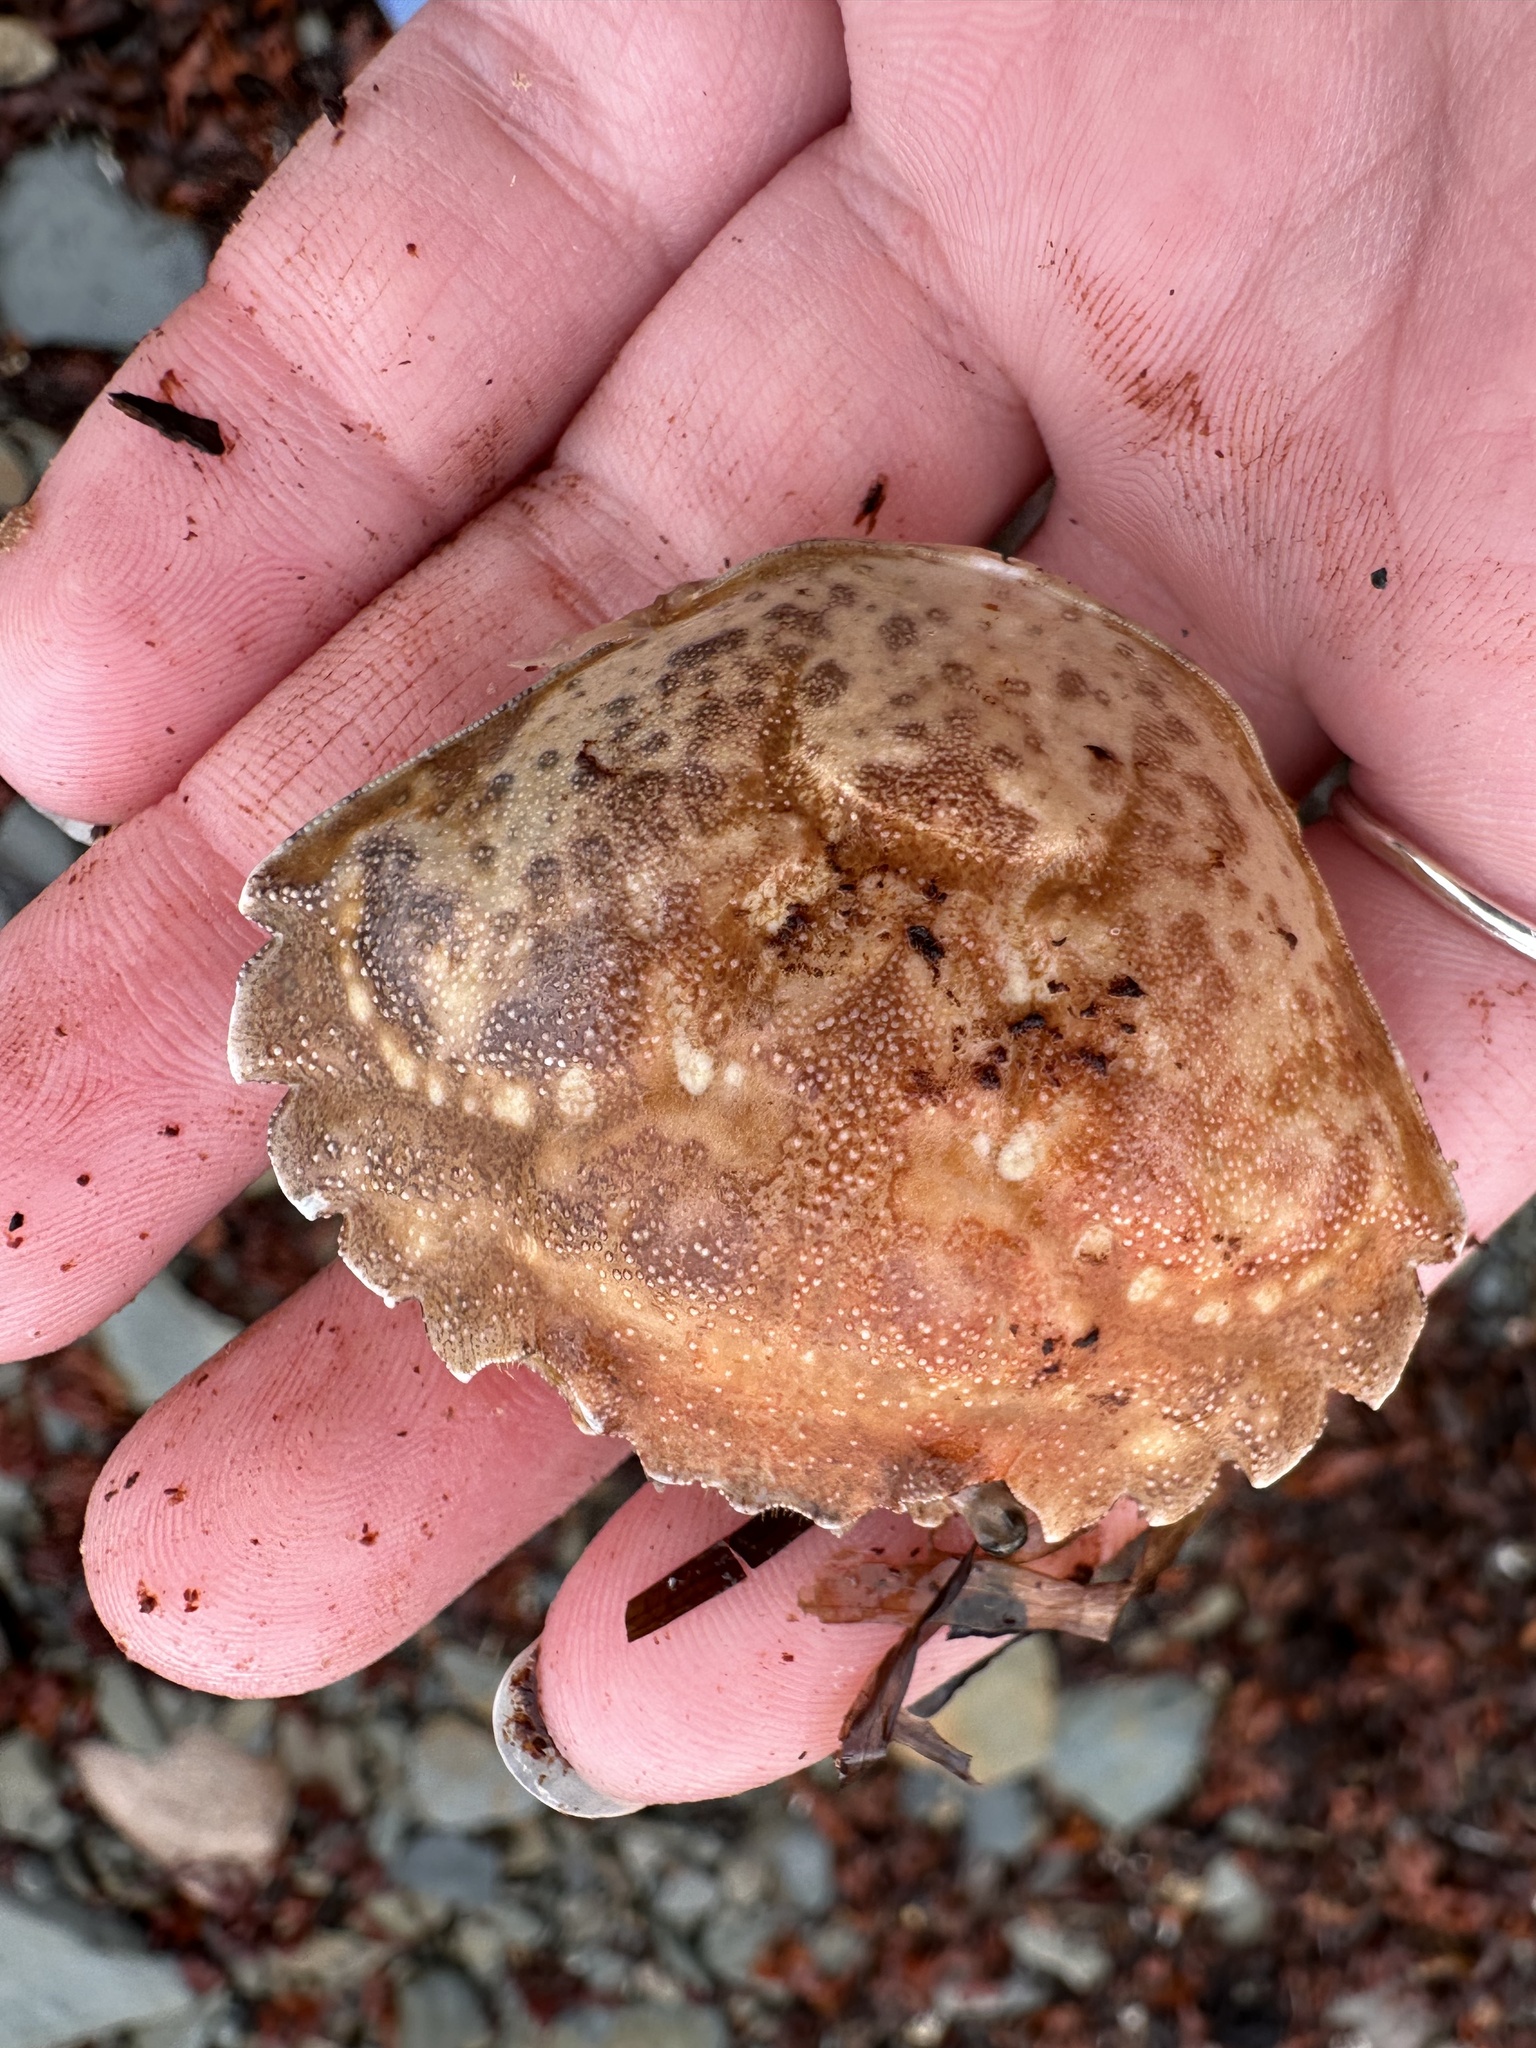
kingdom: Animalia
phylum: Arthropoda
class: Malacostraca
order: Decapoda
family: Carcinidae
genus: Carcinus
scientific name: Carcinus maenas
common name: European green crab
